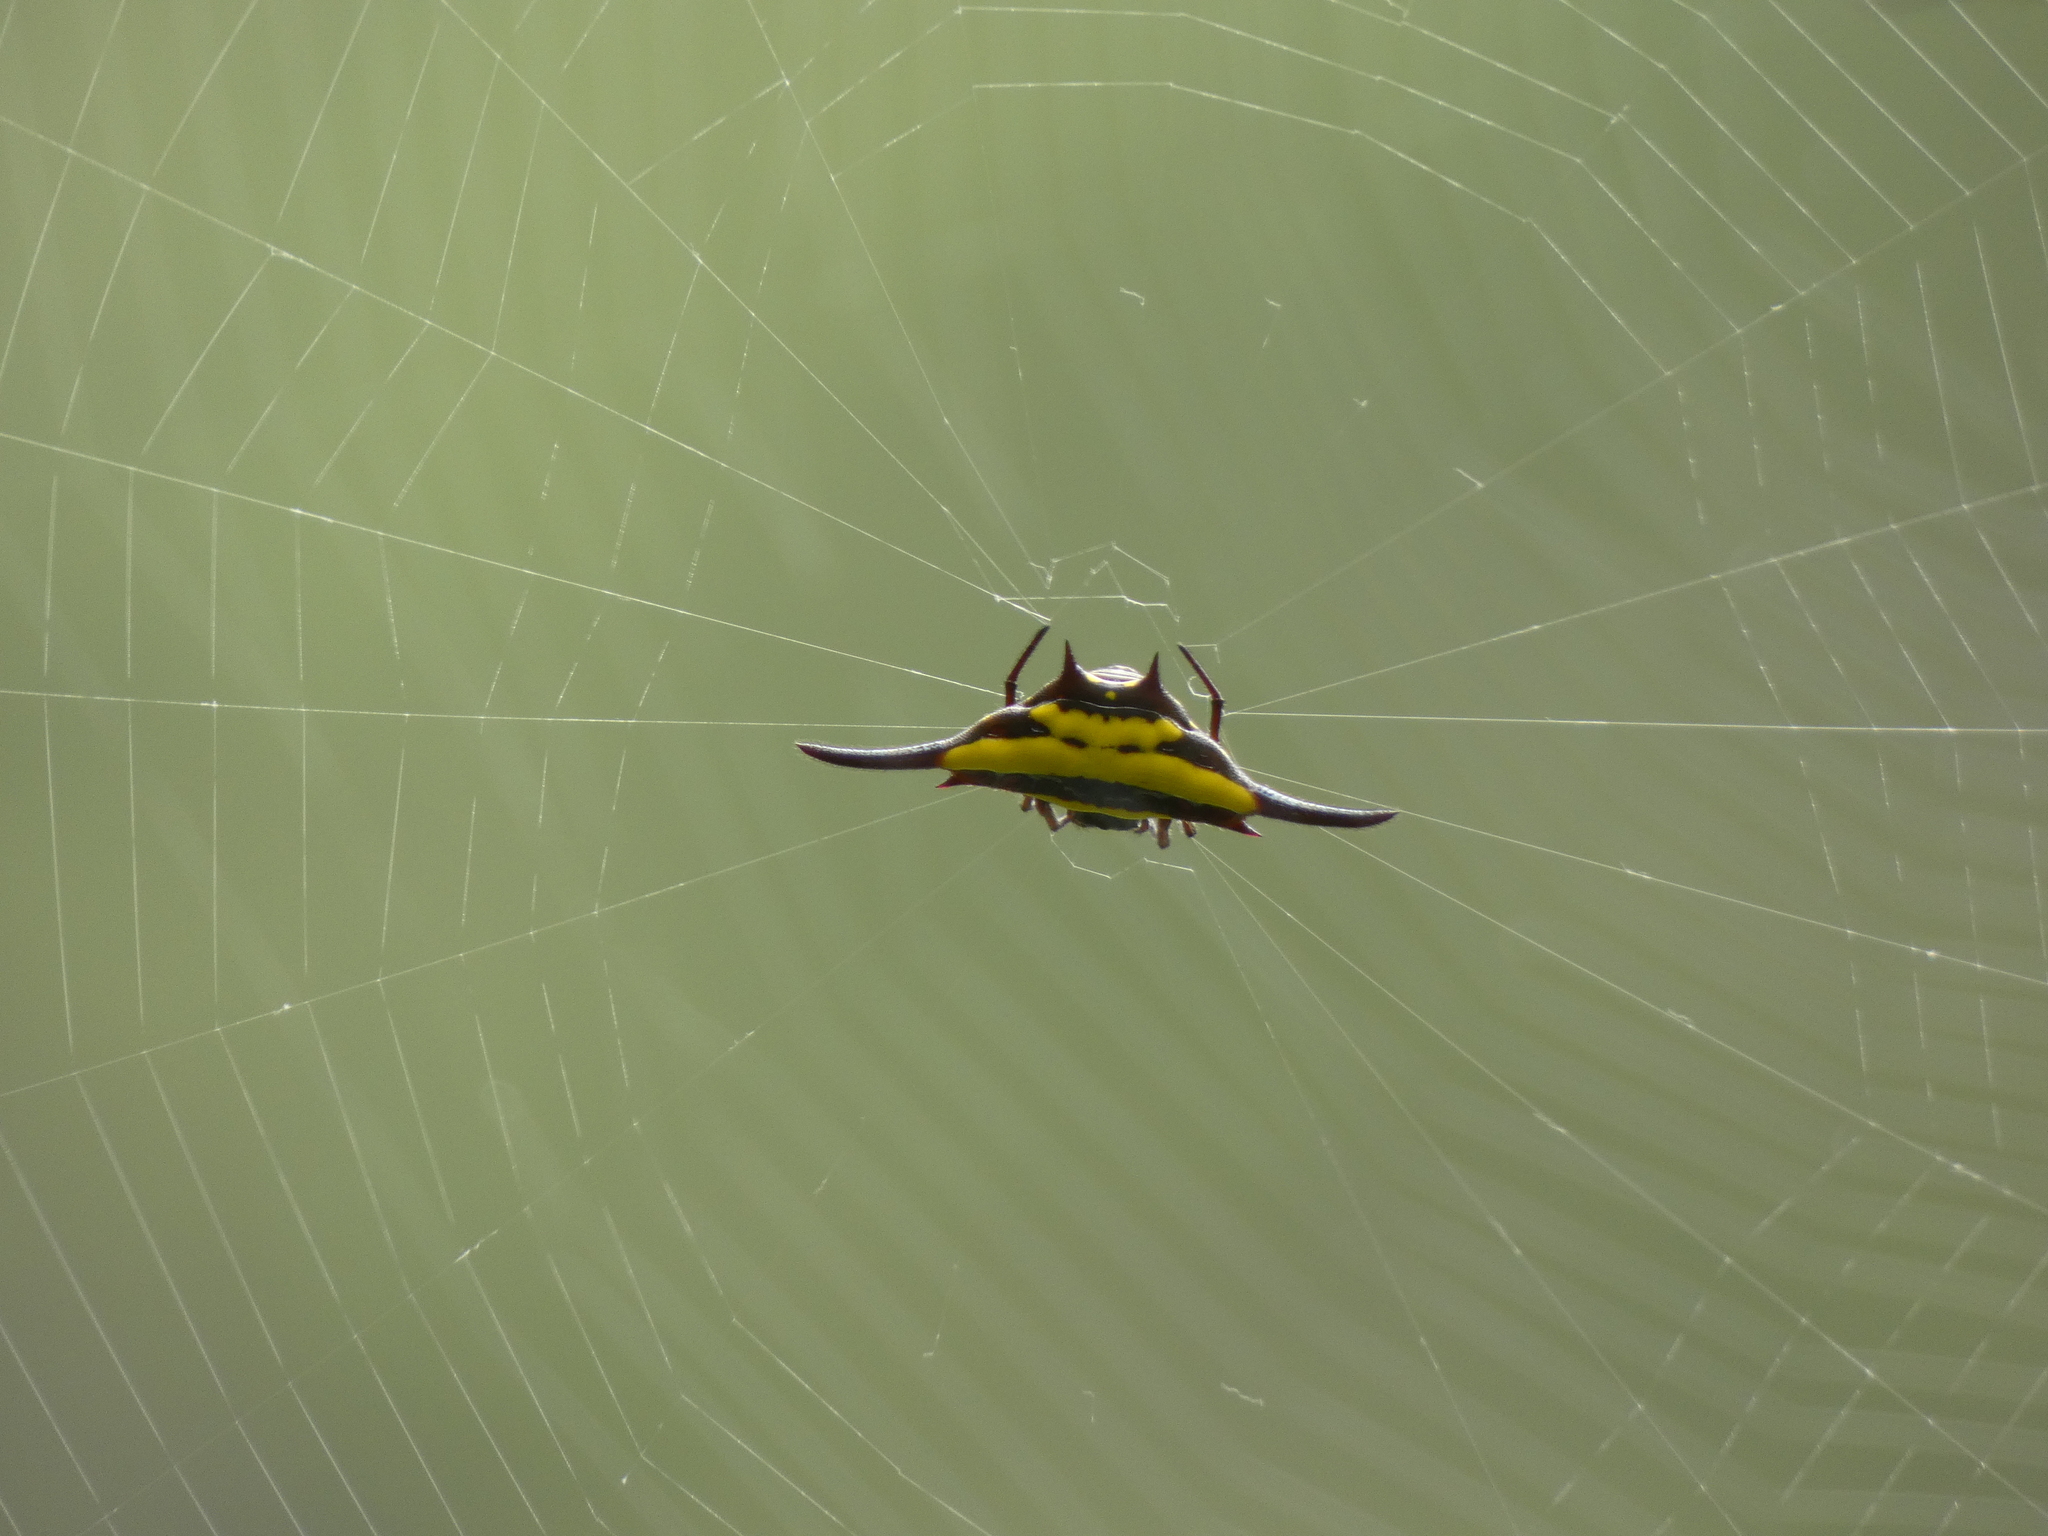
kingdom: Animalia
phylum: Arthropoda
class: Arachnida
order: Araneae
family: Araneidae
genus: Gasteracantha
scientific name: Gasteracantha transversa
